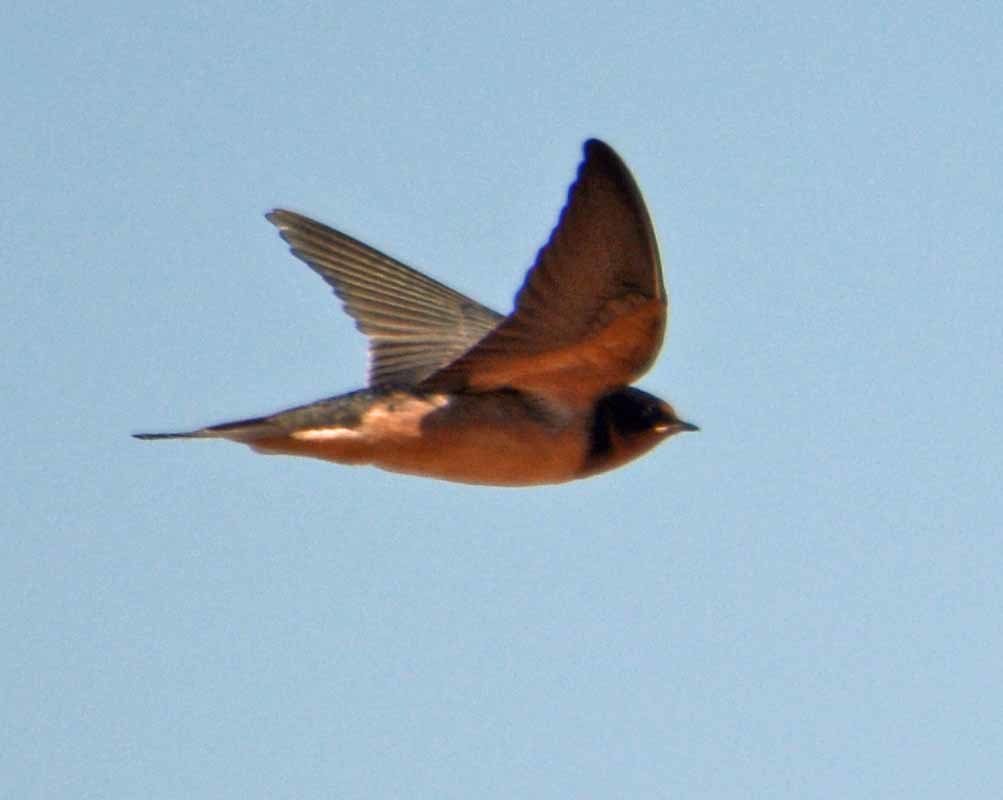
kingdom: Animalia
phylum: Chordata
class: Aves
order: Passeriformes
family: Hirundinidae
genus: Hirundo
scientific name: Hirundo rustica
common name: Barn swallow
